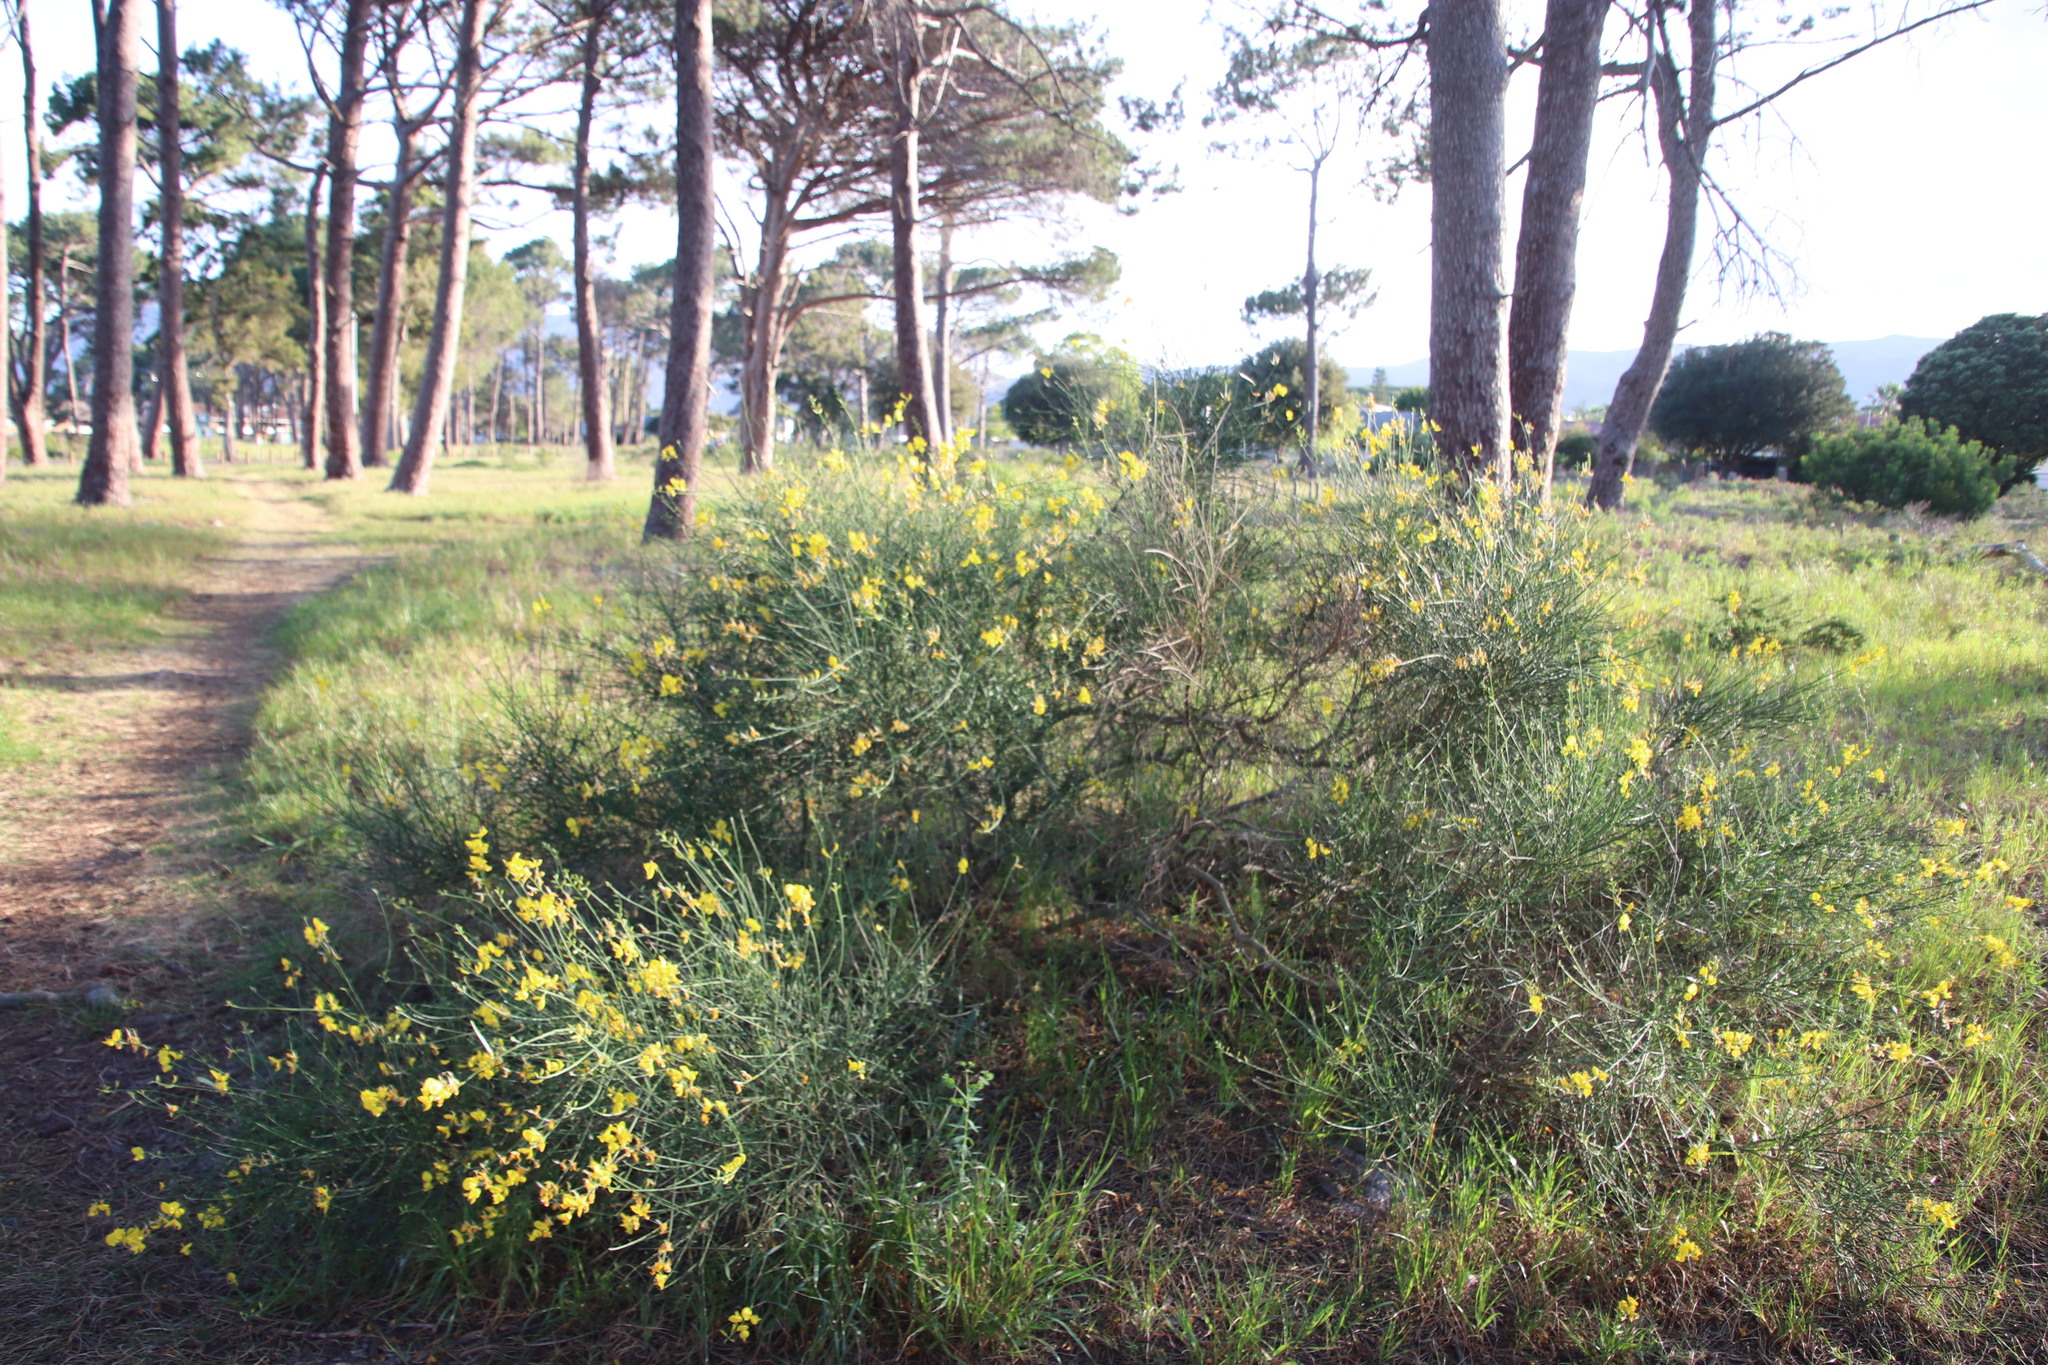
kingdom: Plantae
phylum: Tracheophyta
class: Magnoliopsida
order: Fabales
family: Fabaceae
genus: Spartium
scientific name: Spartium junceum
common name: Spanish broom
